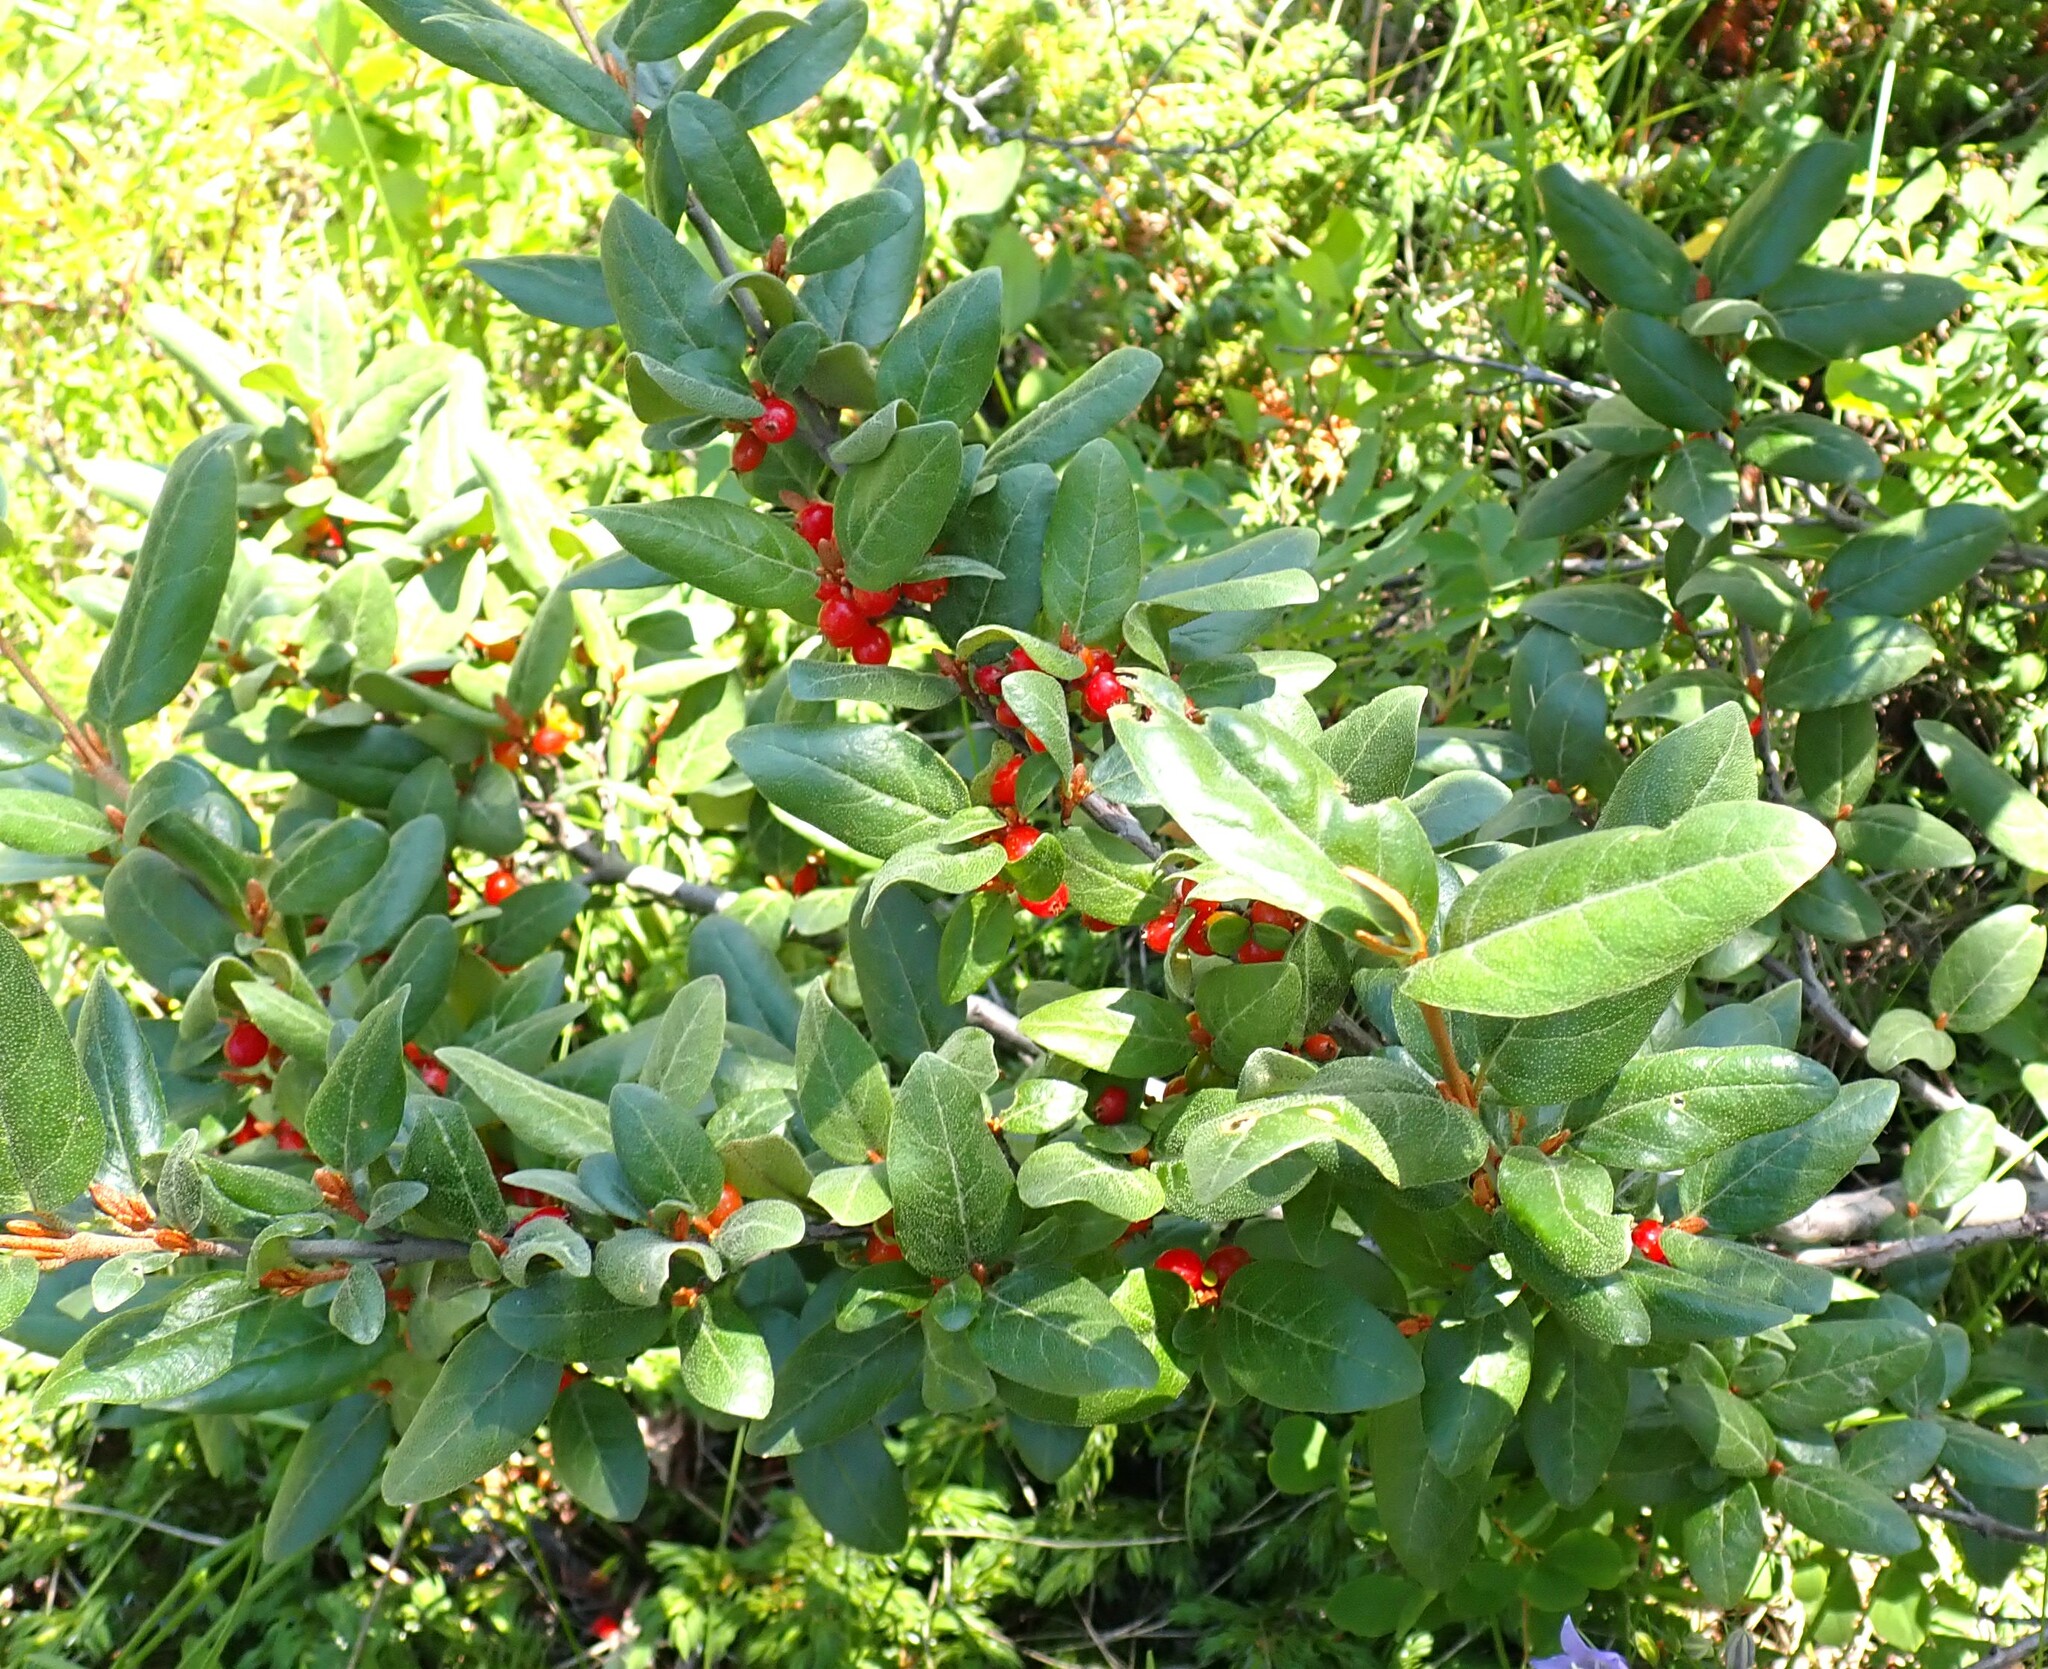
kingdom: Plantae
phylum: Tracheophyta
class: Magnoliopsida
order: Rosales
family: Elaeagnaceae
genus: Shepherdia
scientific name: Shepherdia canadensis
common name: Soapberry
